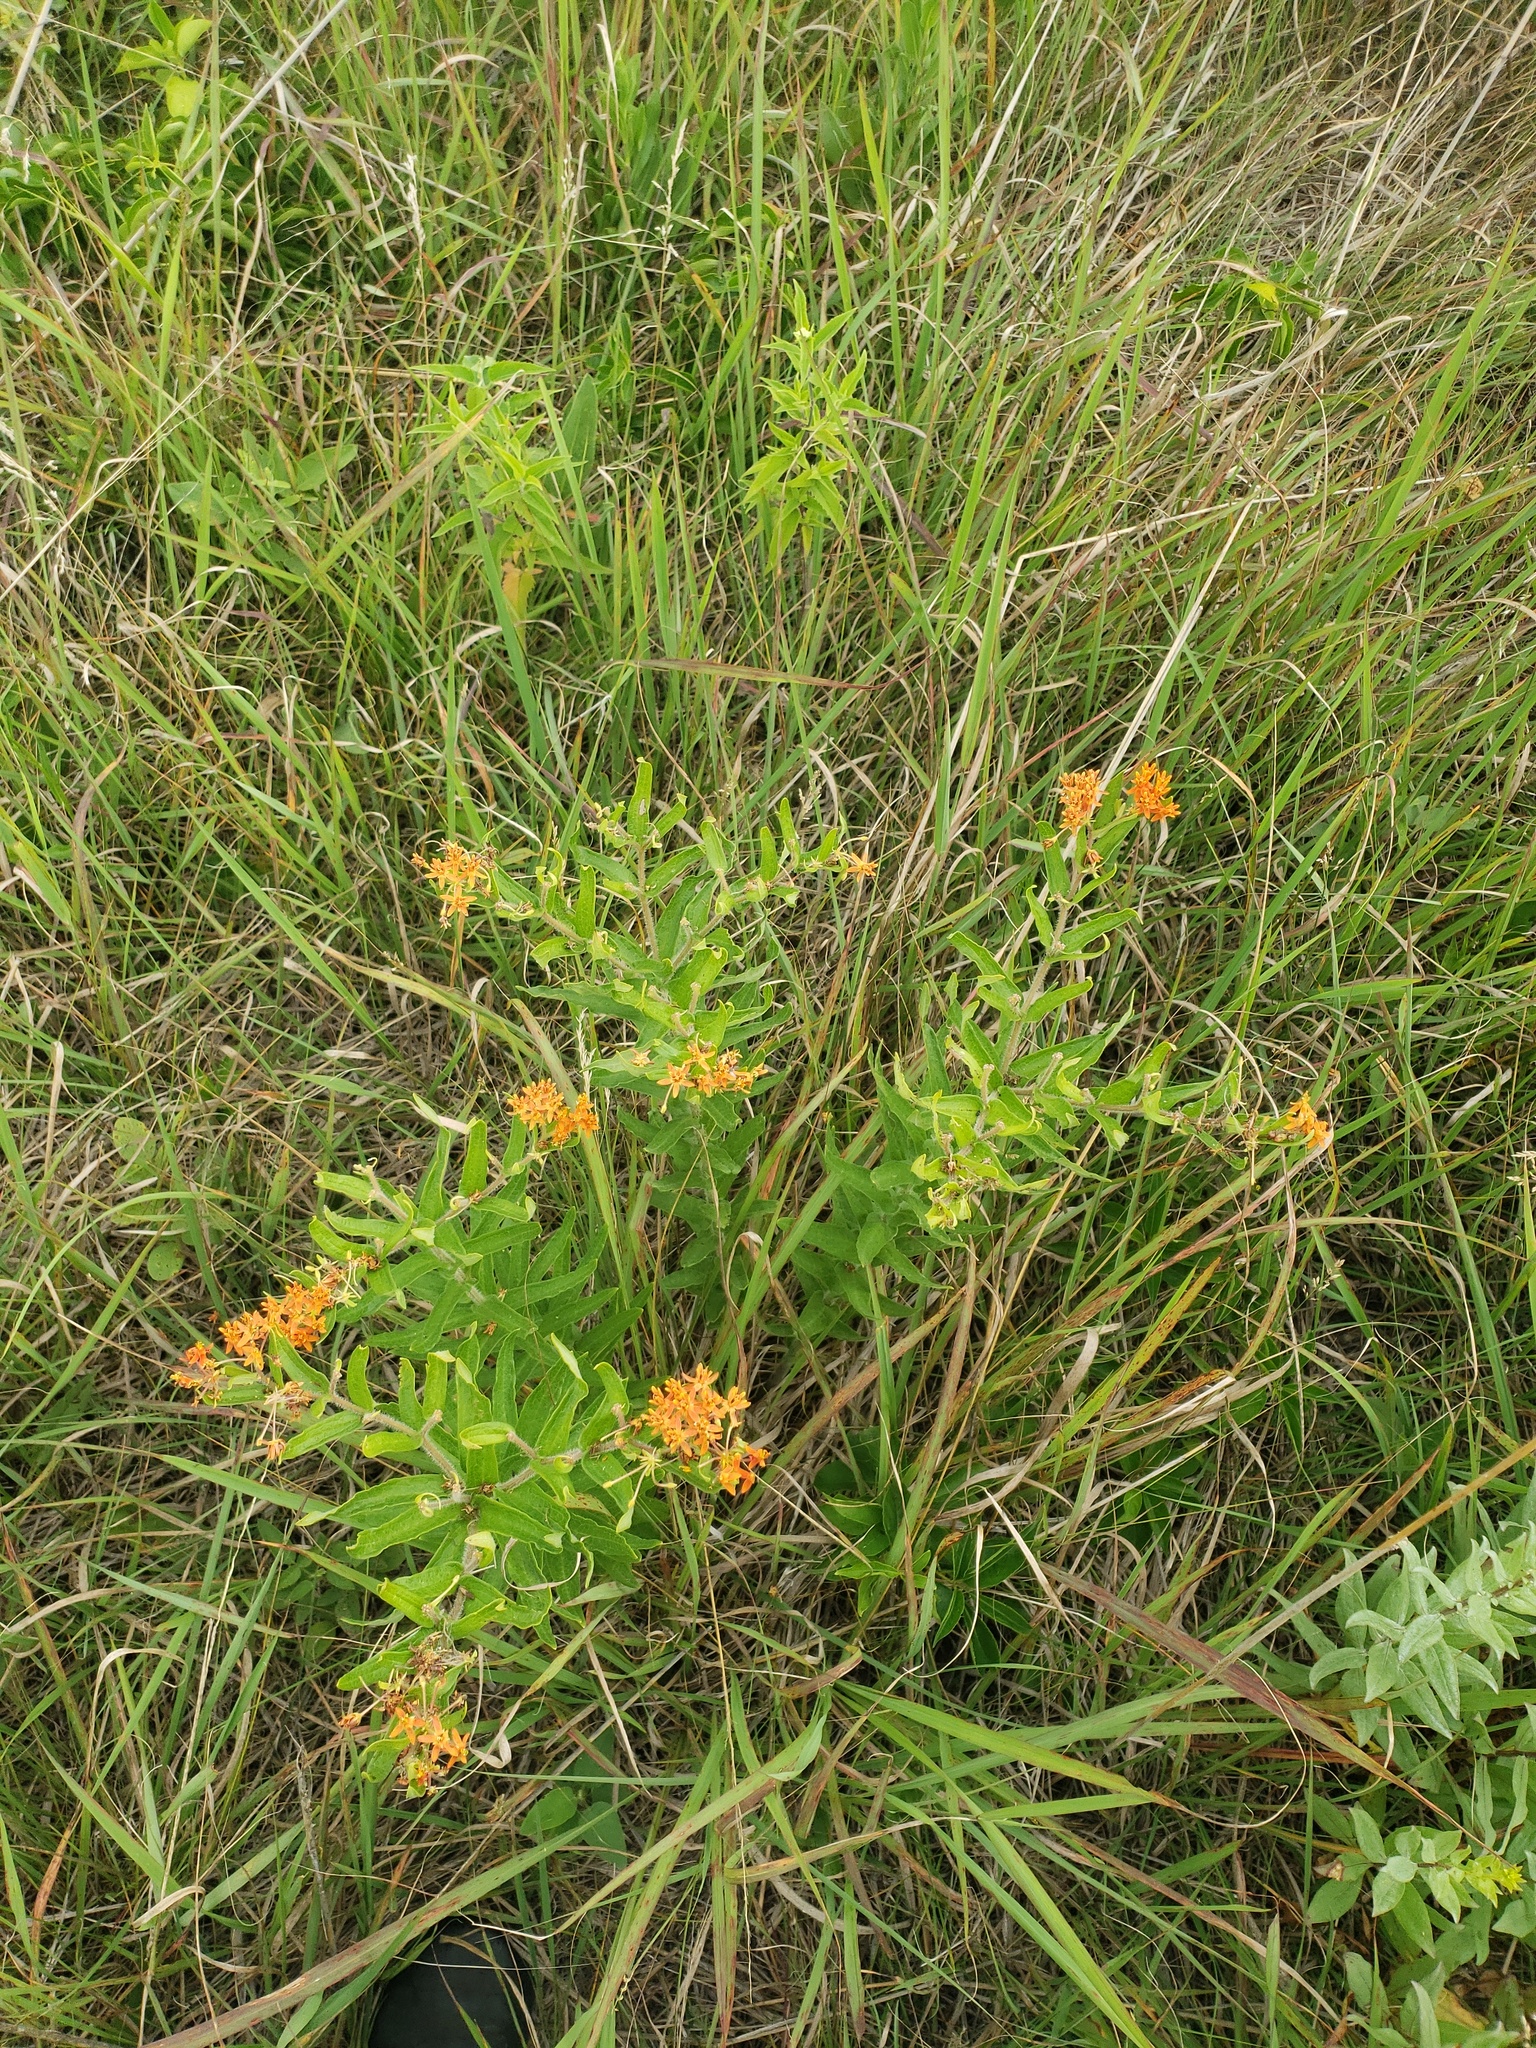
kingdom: Plantae
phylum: Tracheophyta
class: Magnoliopsida
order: Gentianales
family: Apocynaceae
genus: Asclepias
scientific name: Asclepias tuberosa
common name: Butterfly milkweed
